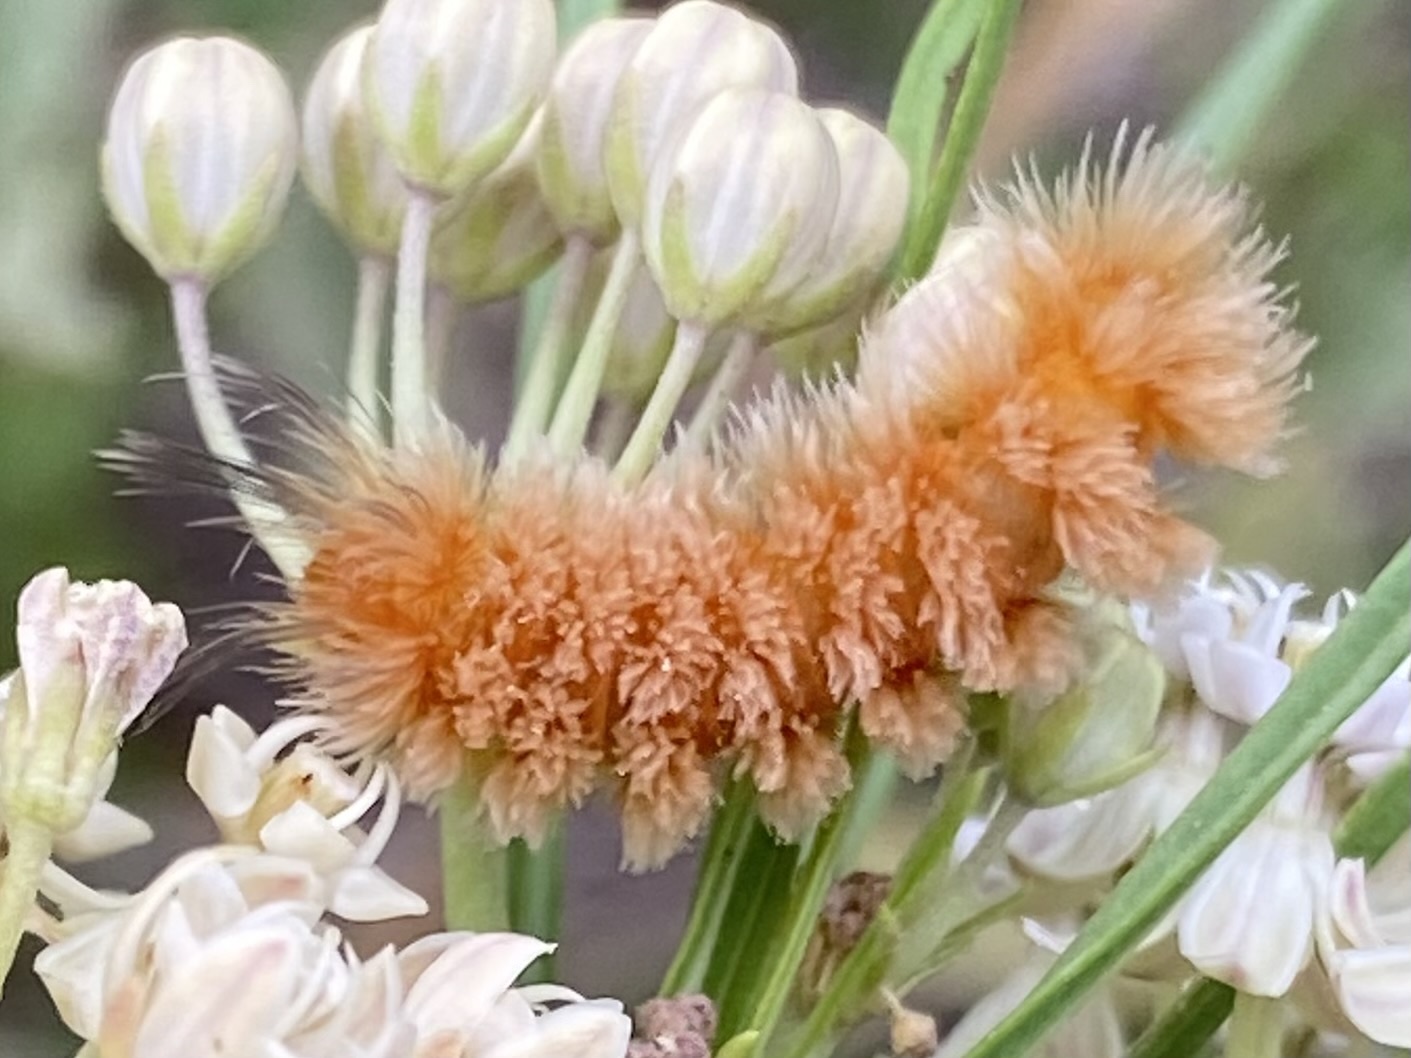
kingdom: Animalia
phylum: Arthropoda
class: Insecta
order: Lepidoptera
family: Erebidae
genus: Cycnia
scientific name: Cycnia collaris
